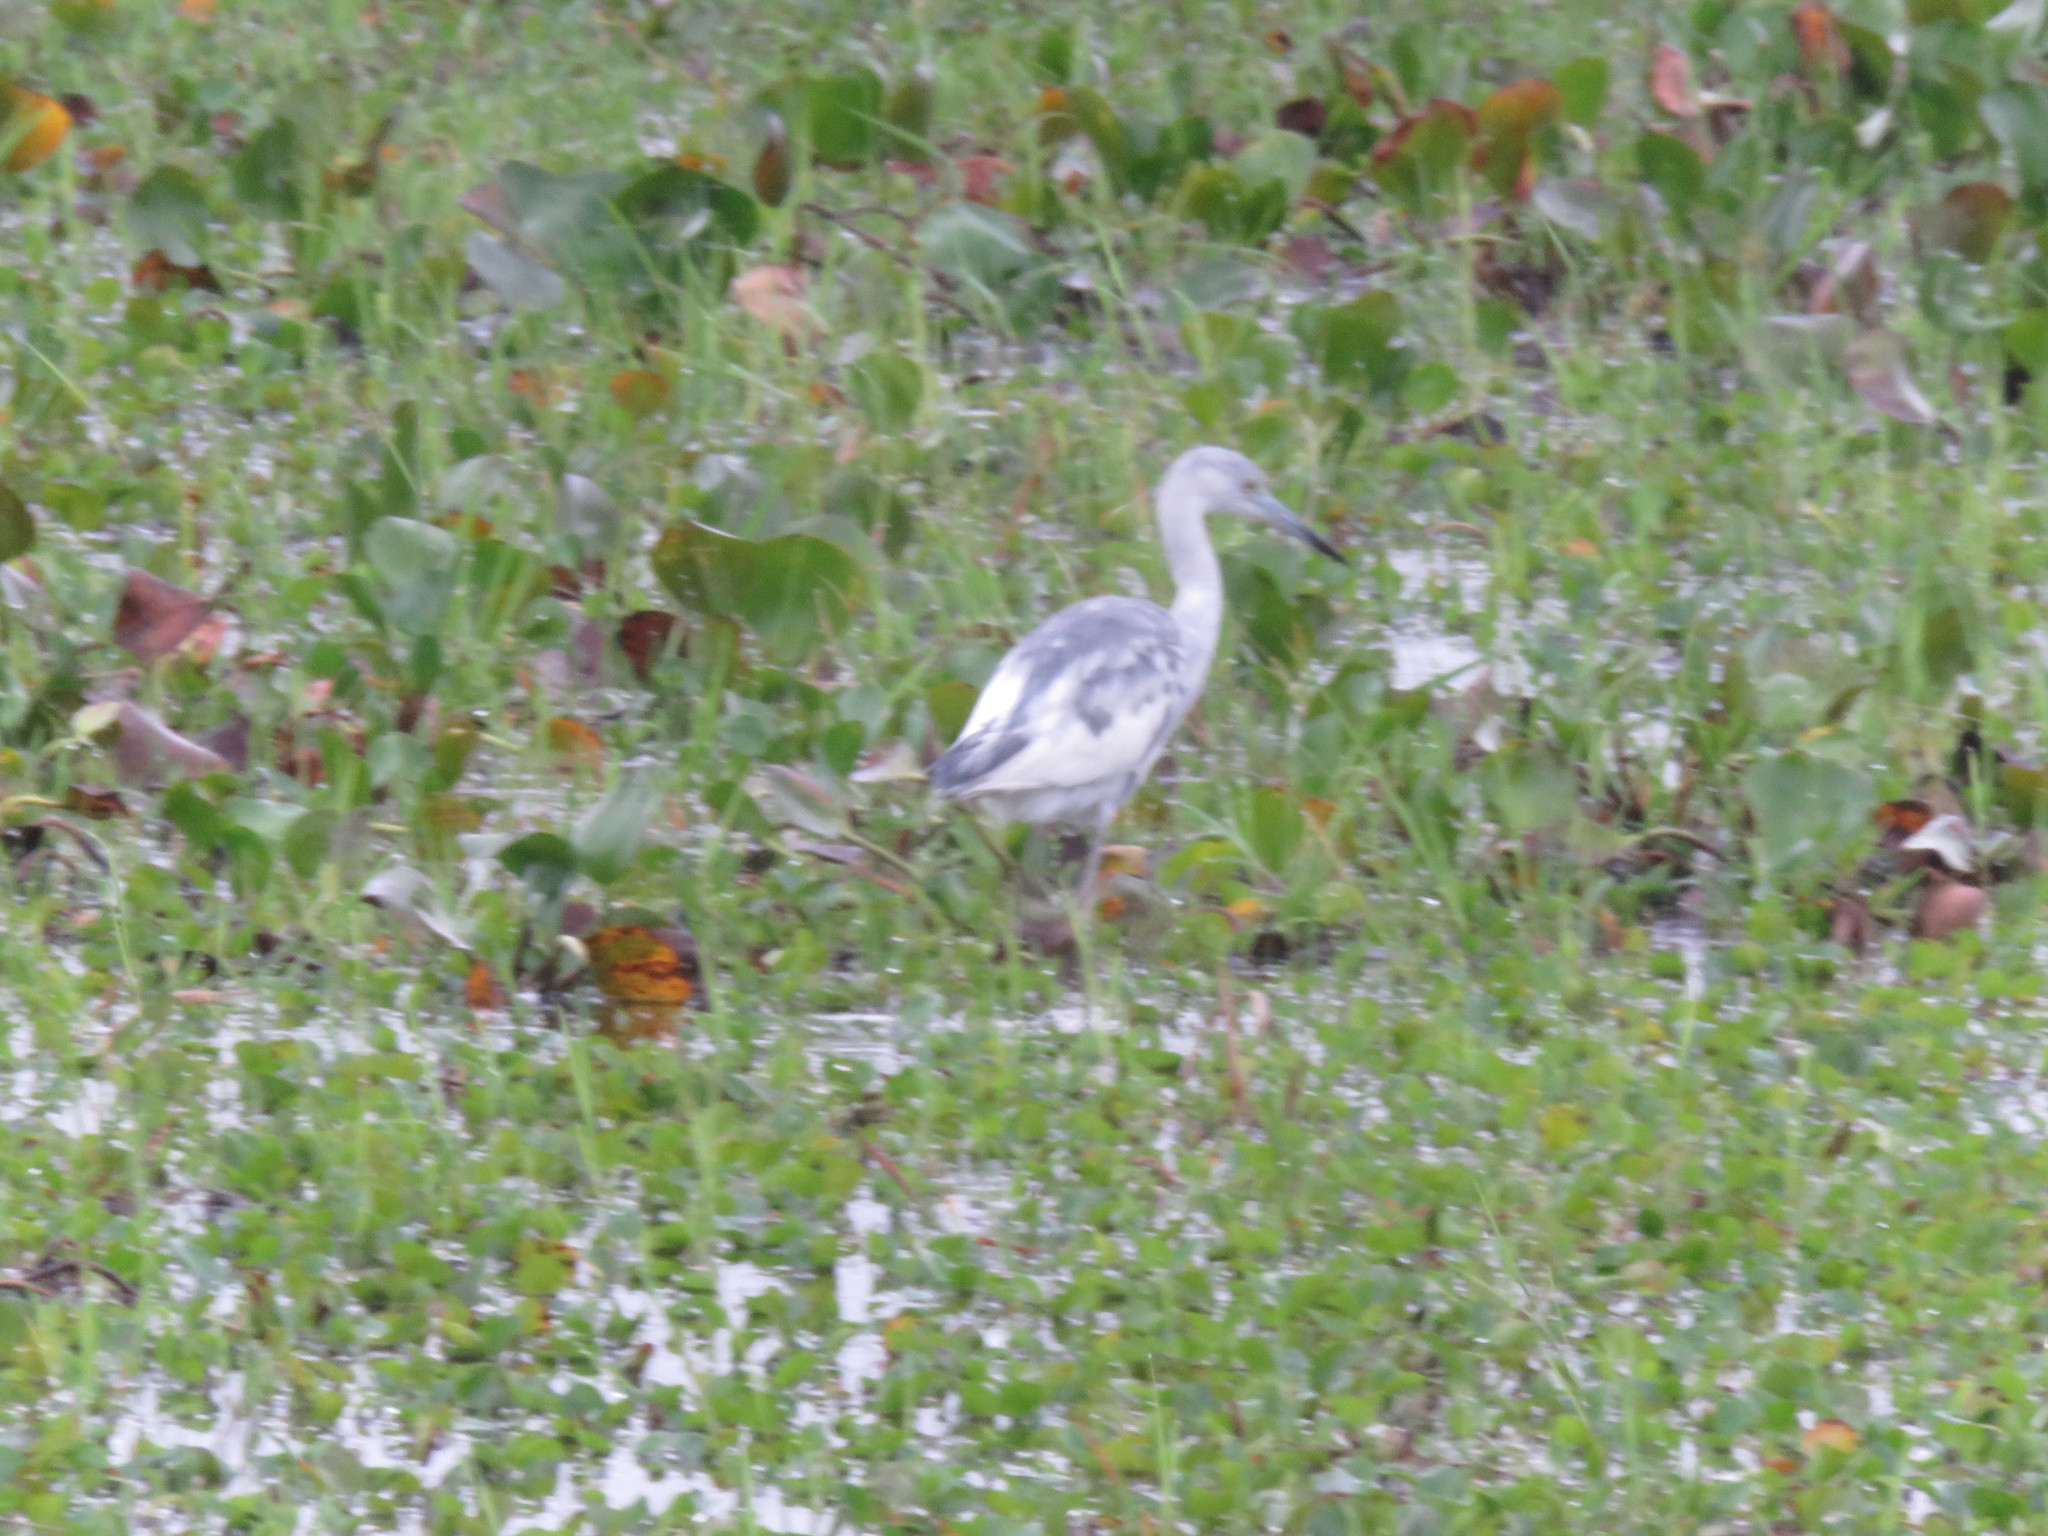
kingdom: Animalia
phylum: Chordata
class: Aves
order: Pelecaniformes
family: Ardeidae
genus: Egretta
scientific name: Egretta caerulea
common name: Little blue heron
